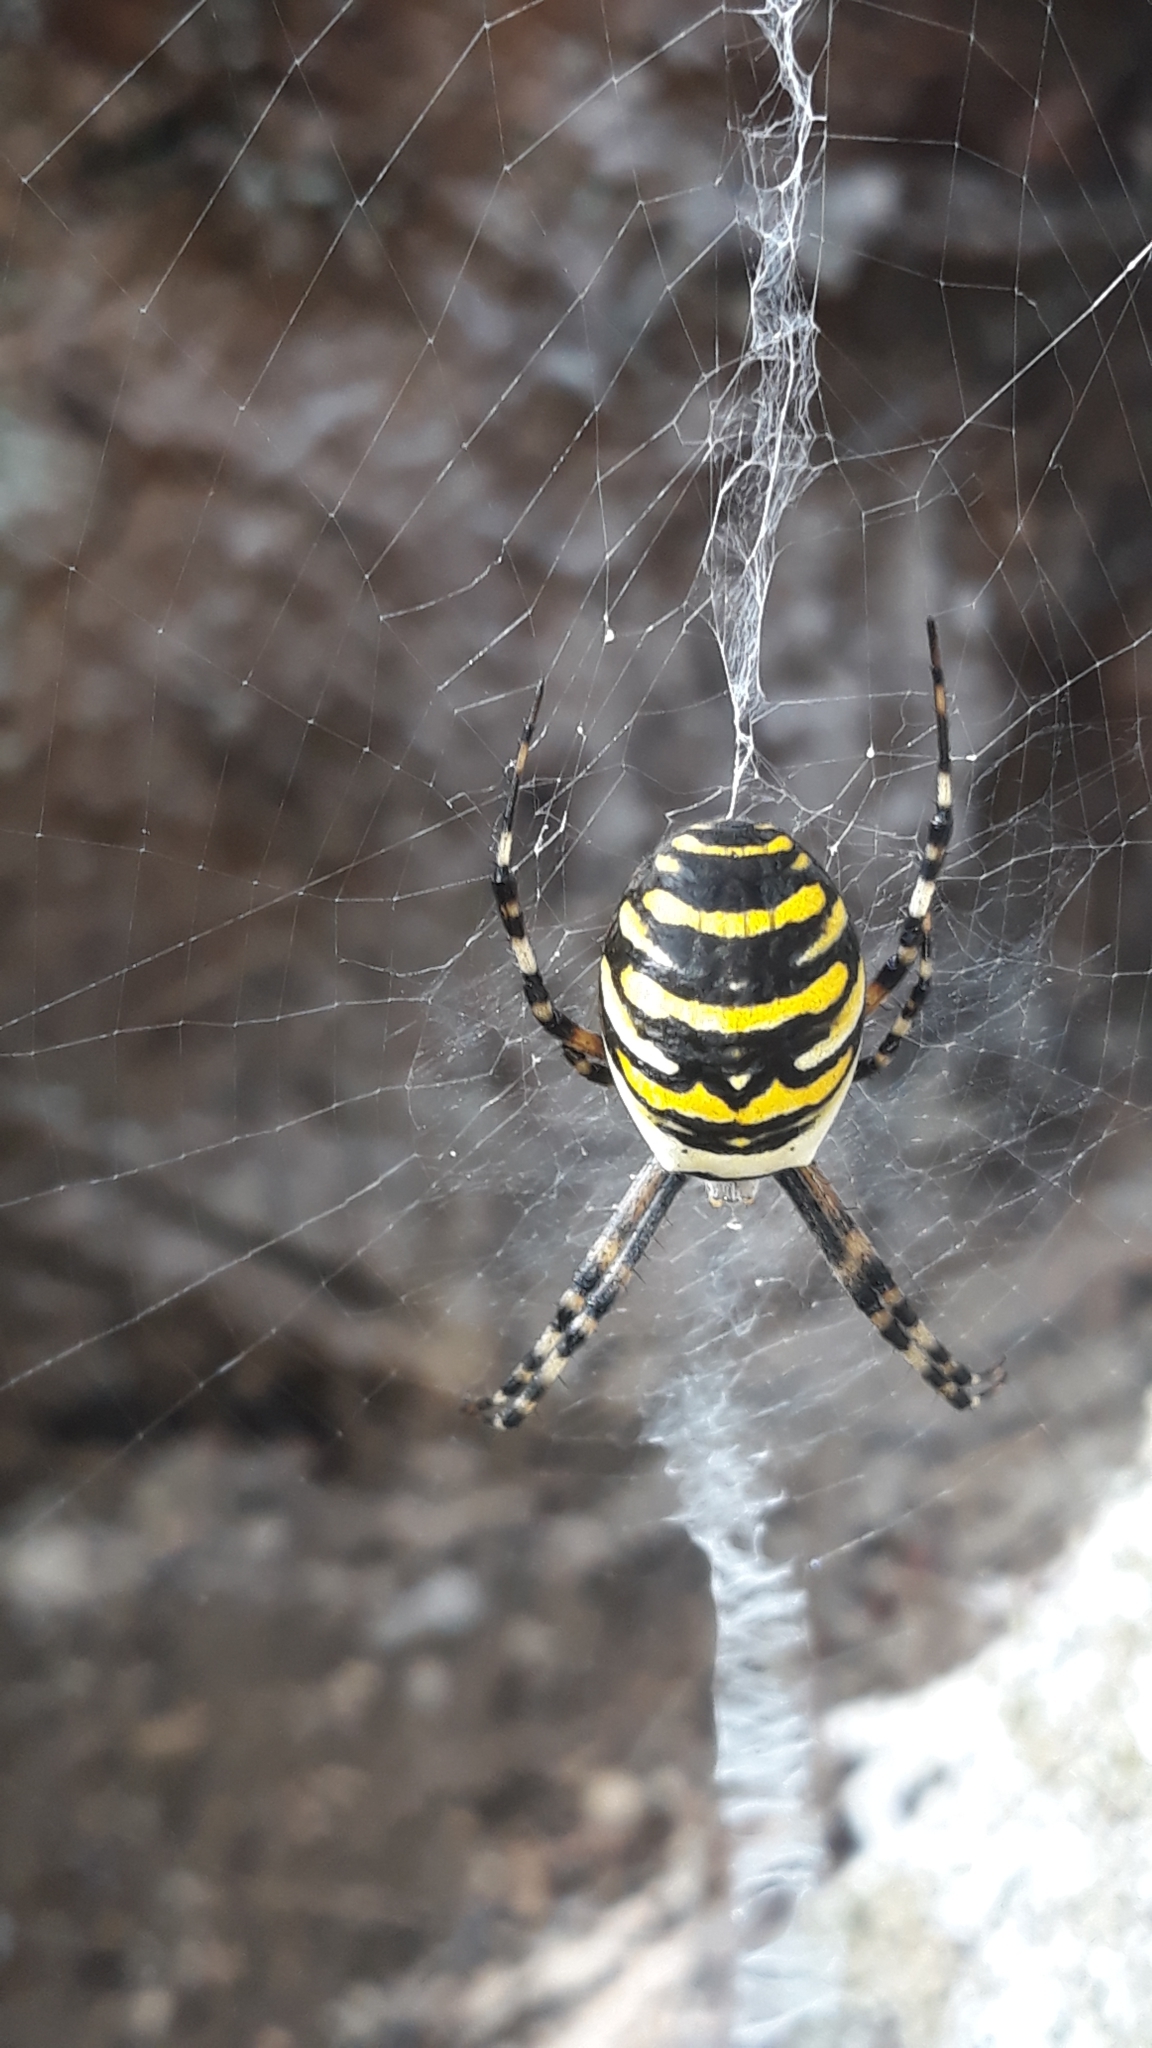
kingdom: Animalia
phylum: Arthropoda
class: Arachnida
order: Araneae
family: Araneidae
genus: Argiope
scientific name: Argiope bruennichi
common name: Wasp spider
